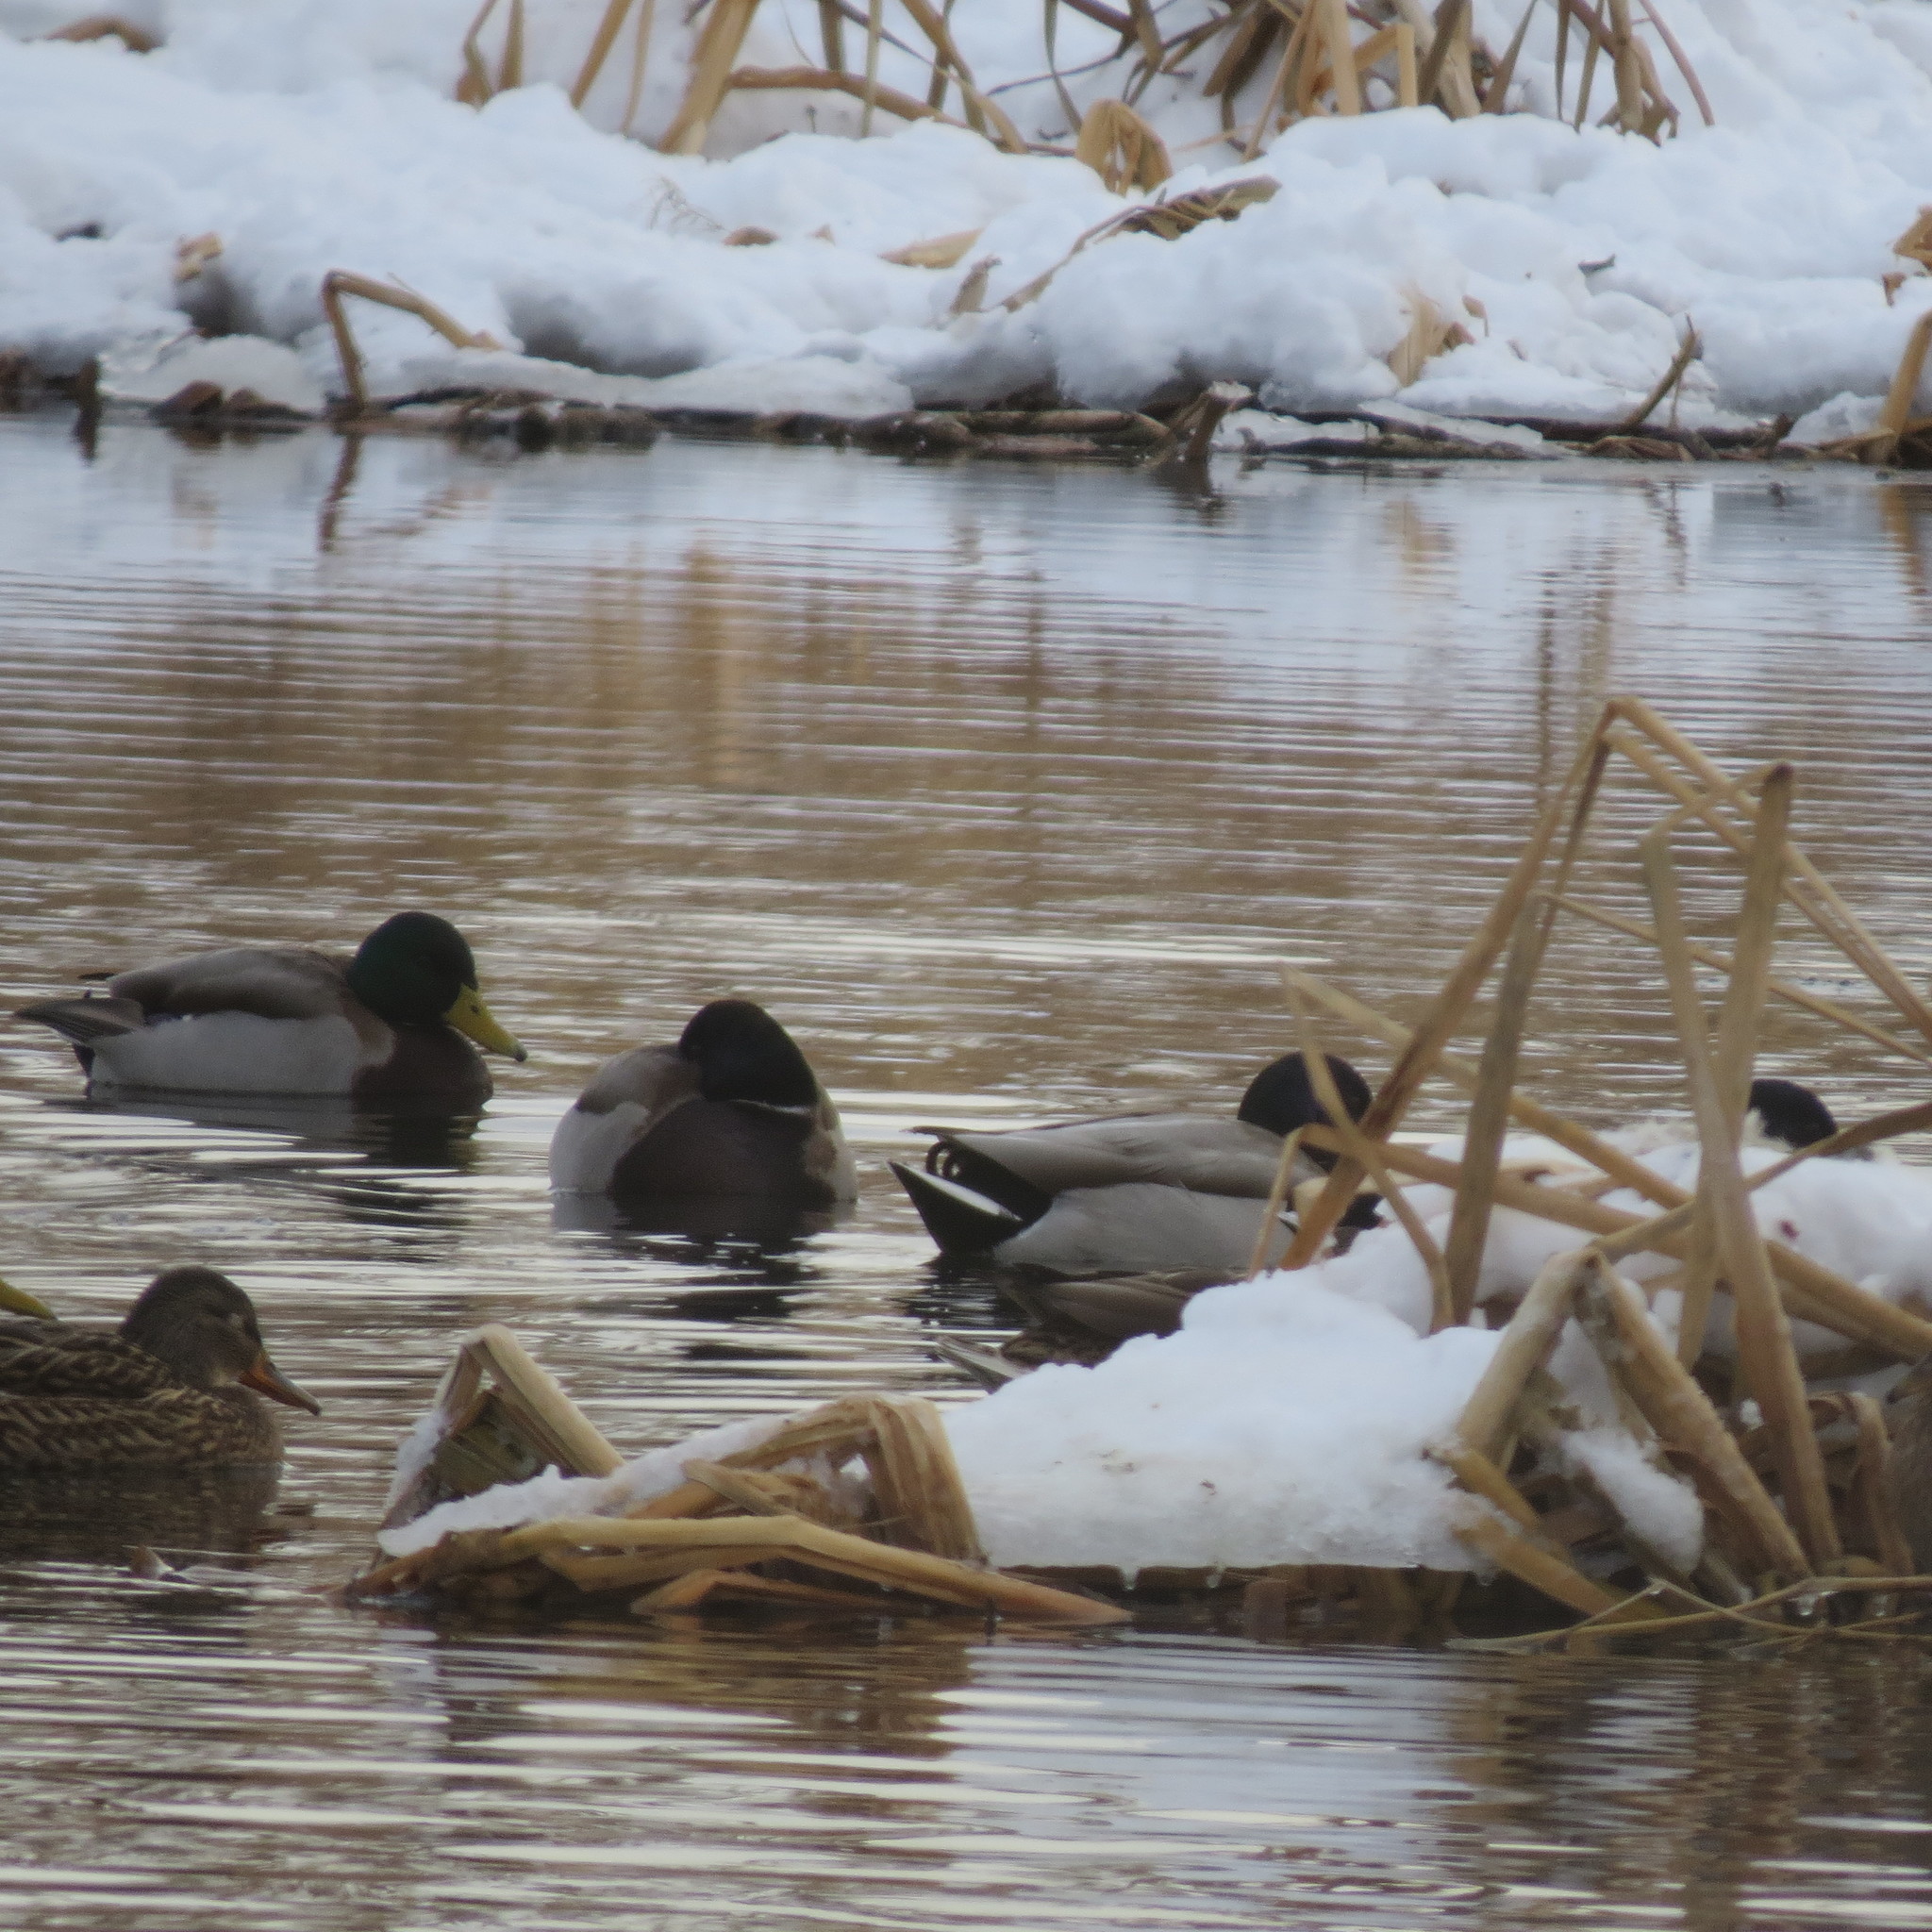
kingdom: Animalia
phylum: Chordata
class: Aves
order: Anseriformes
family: Anatidae
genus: Anas
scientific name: Anas platyrhynchos
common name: Mallard
